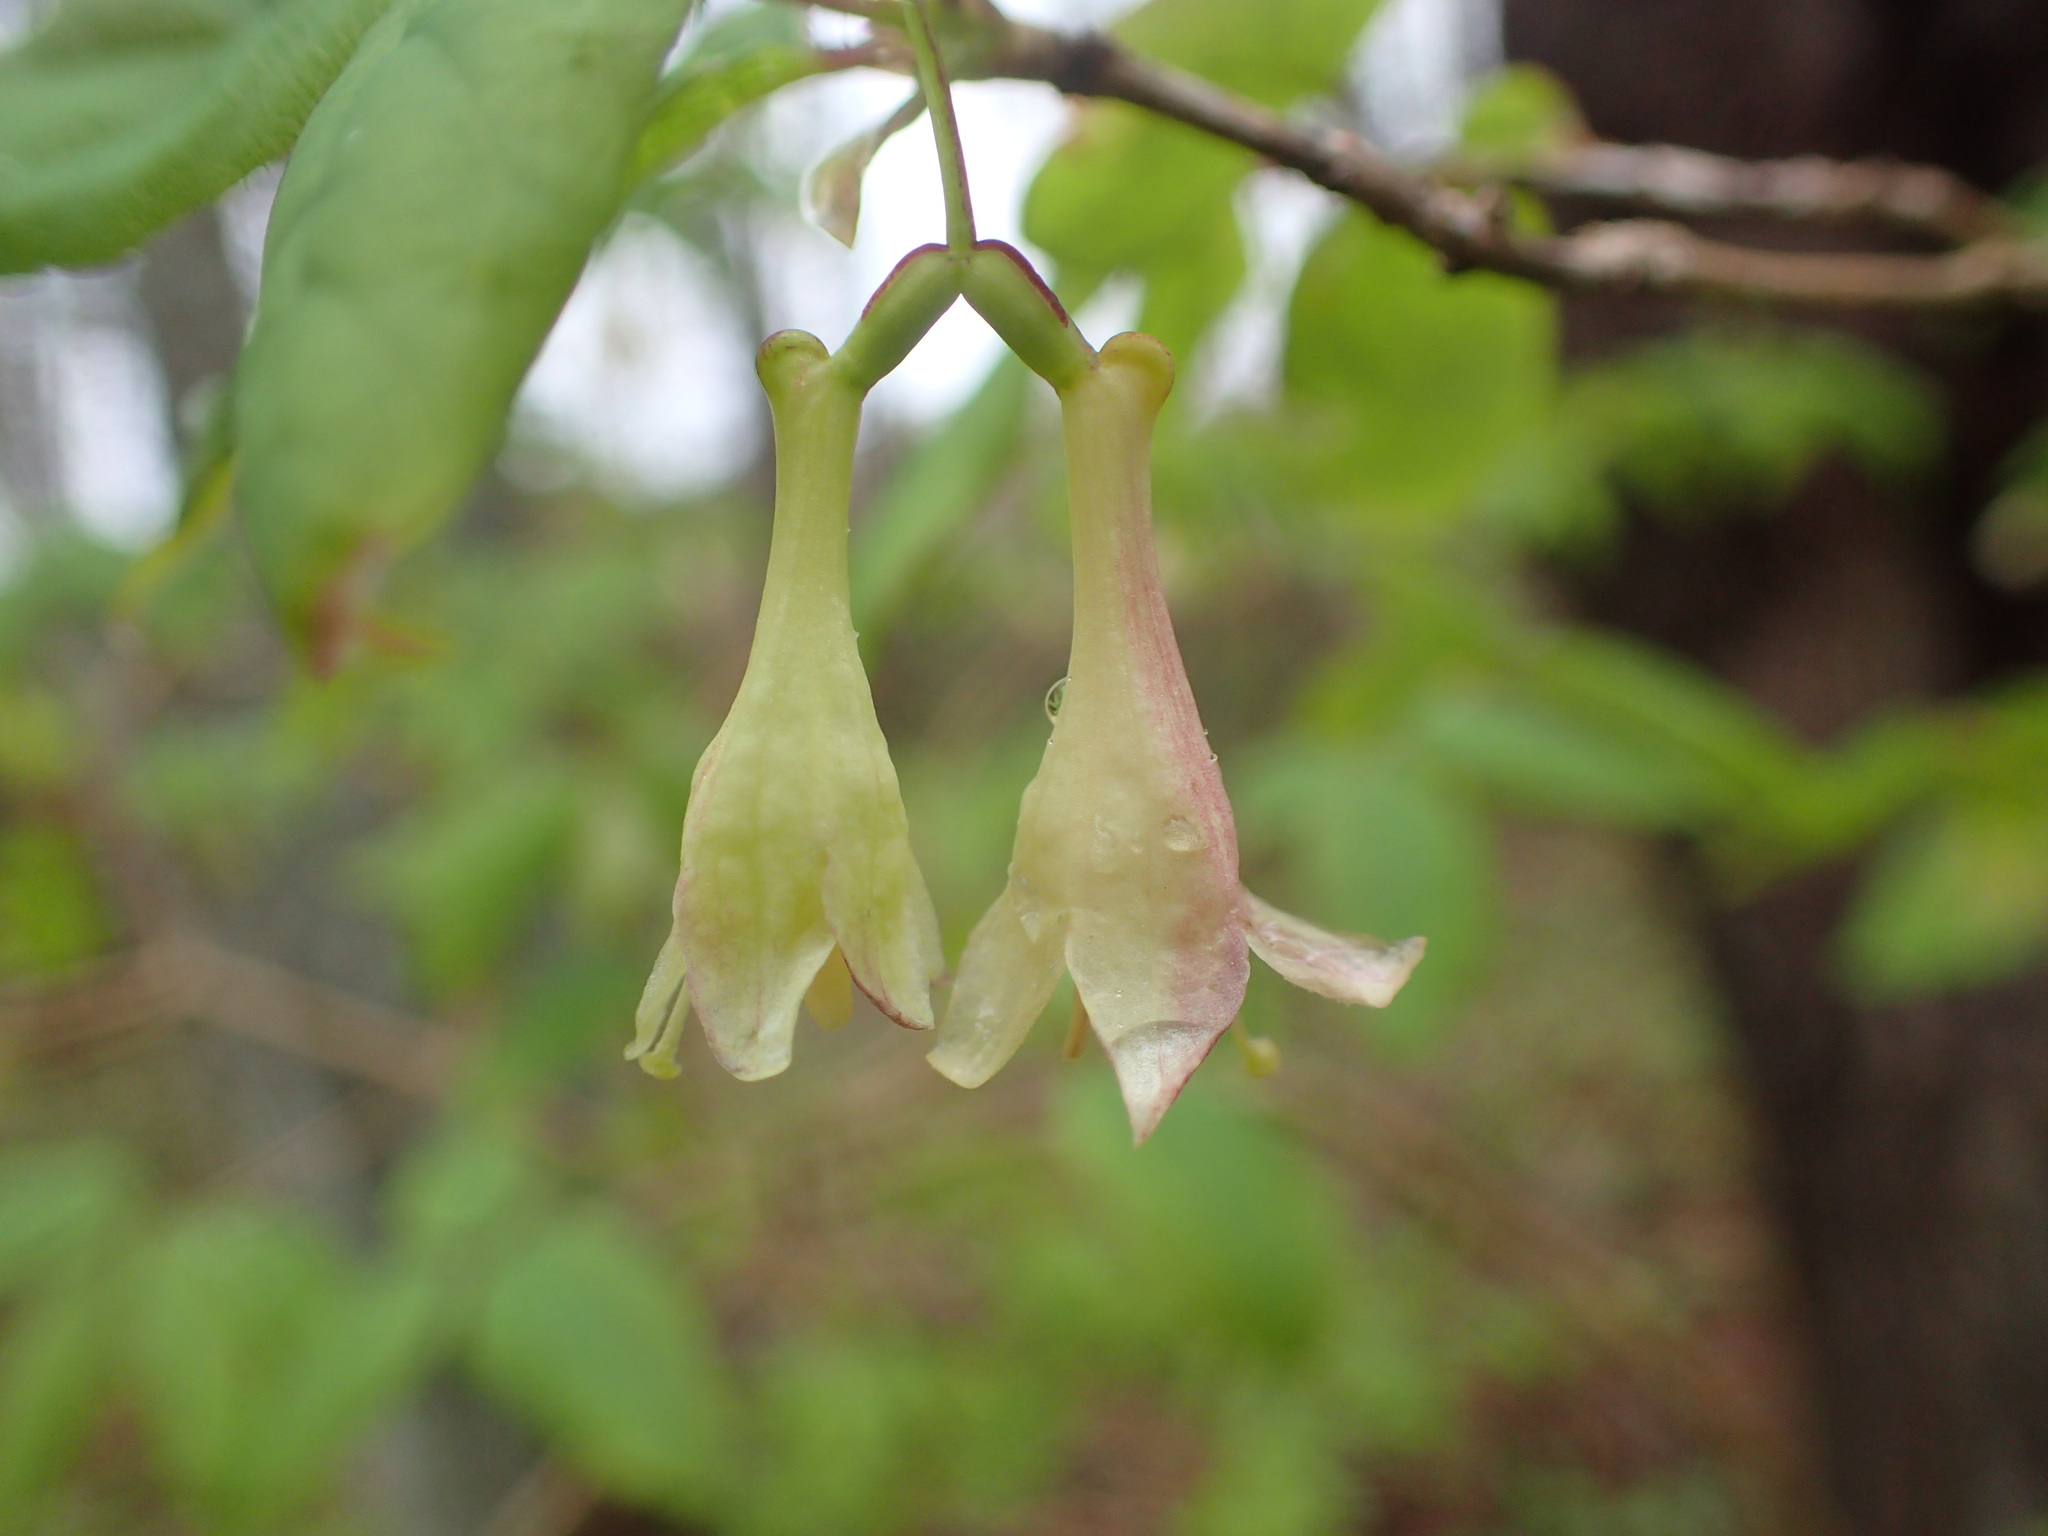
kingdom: Plantae
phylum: Tracheophyta
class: Magnoliopsida
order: Dipsacales
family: Caprifoliaceae
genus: Lonicera
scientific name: Lonicera canadensis
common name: American fly-honeysuckle
